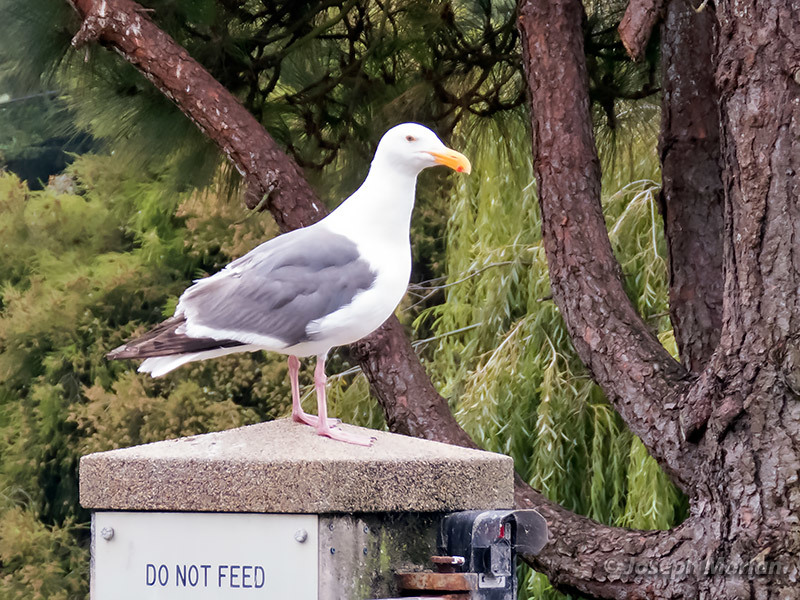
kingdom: Animalia
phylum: Chordata
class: Aves
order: Charadriiformes
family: Laridae
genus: Larus
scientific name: Larus occidentalis
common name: Western gull
